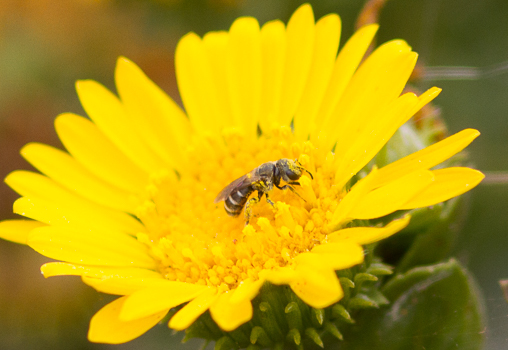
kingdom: Animalia
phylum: Arthropoda
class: Insecta
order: Hymenoptera
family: Halictidae
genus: Halictus
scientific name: Halictus tripartitus
